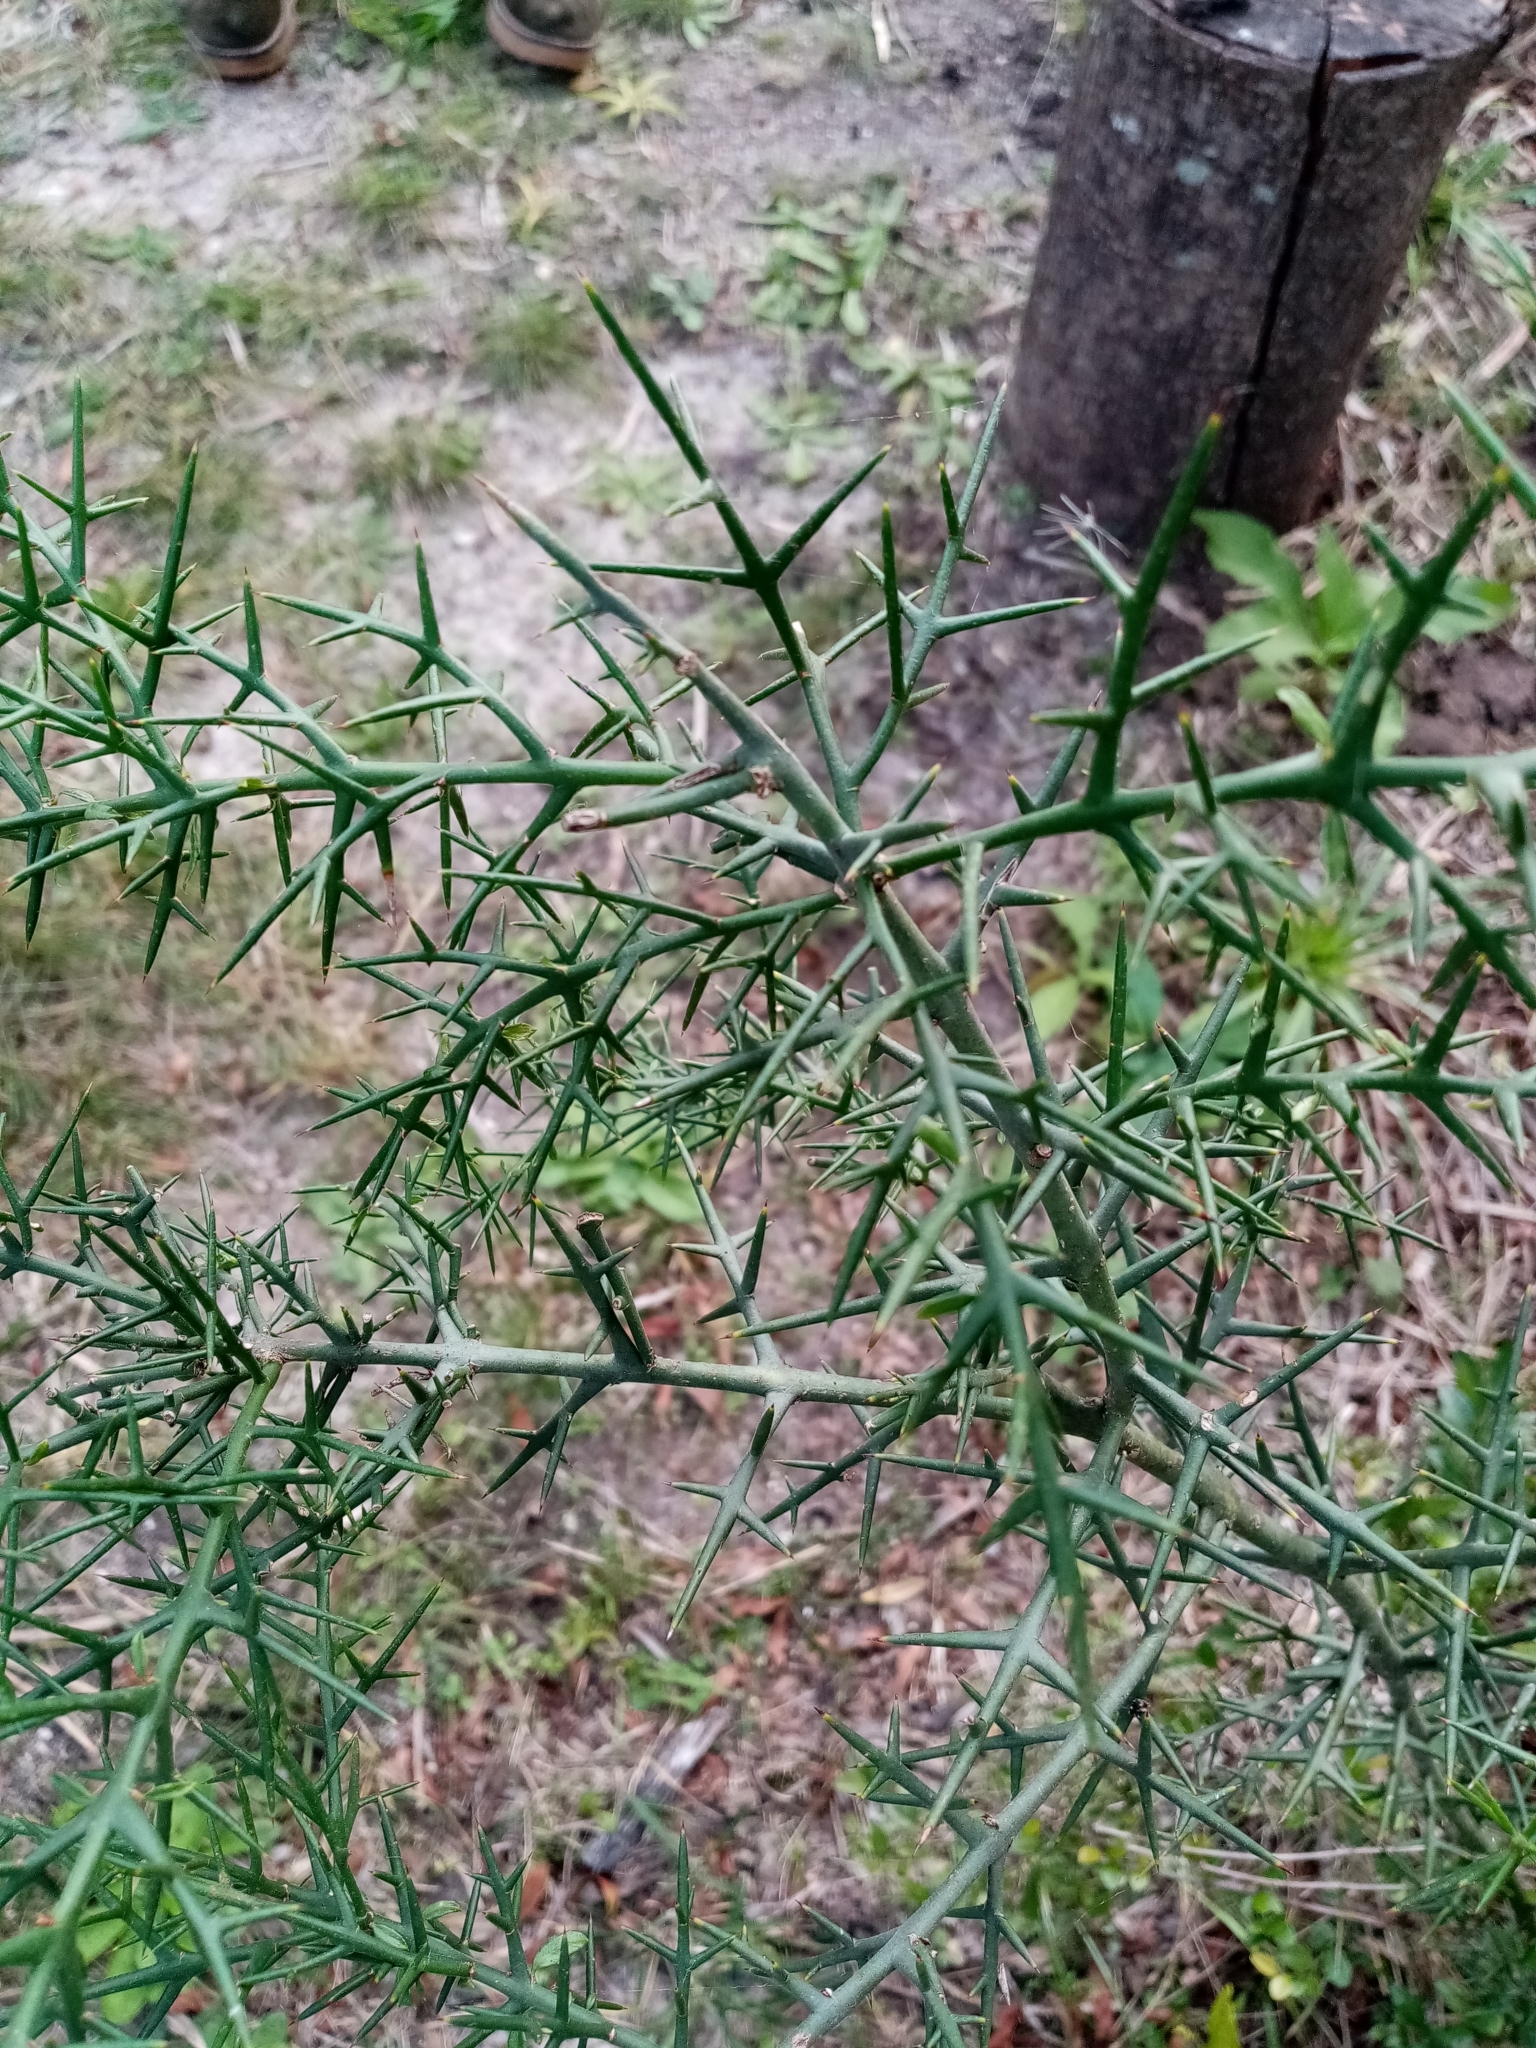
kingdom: Plantae
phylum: Tracheophyta
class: Magnoliopsida
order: Rosales
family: Rhamnaceae
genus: Colletia
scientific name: Colletia spinosissima
